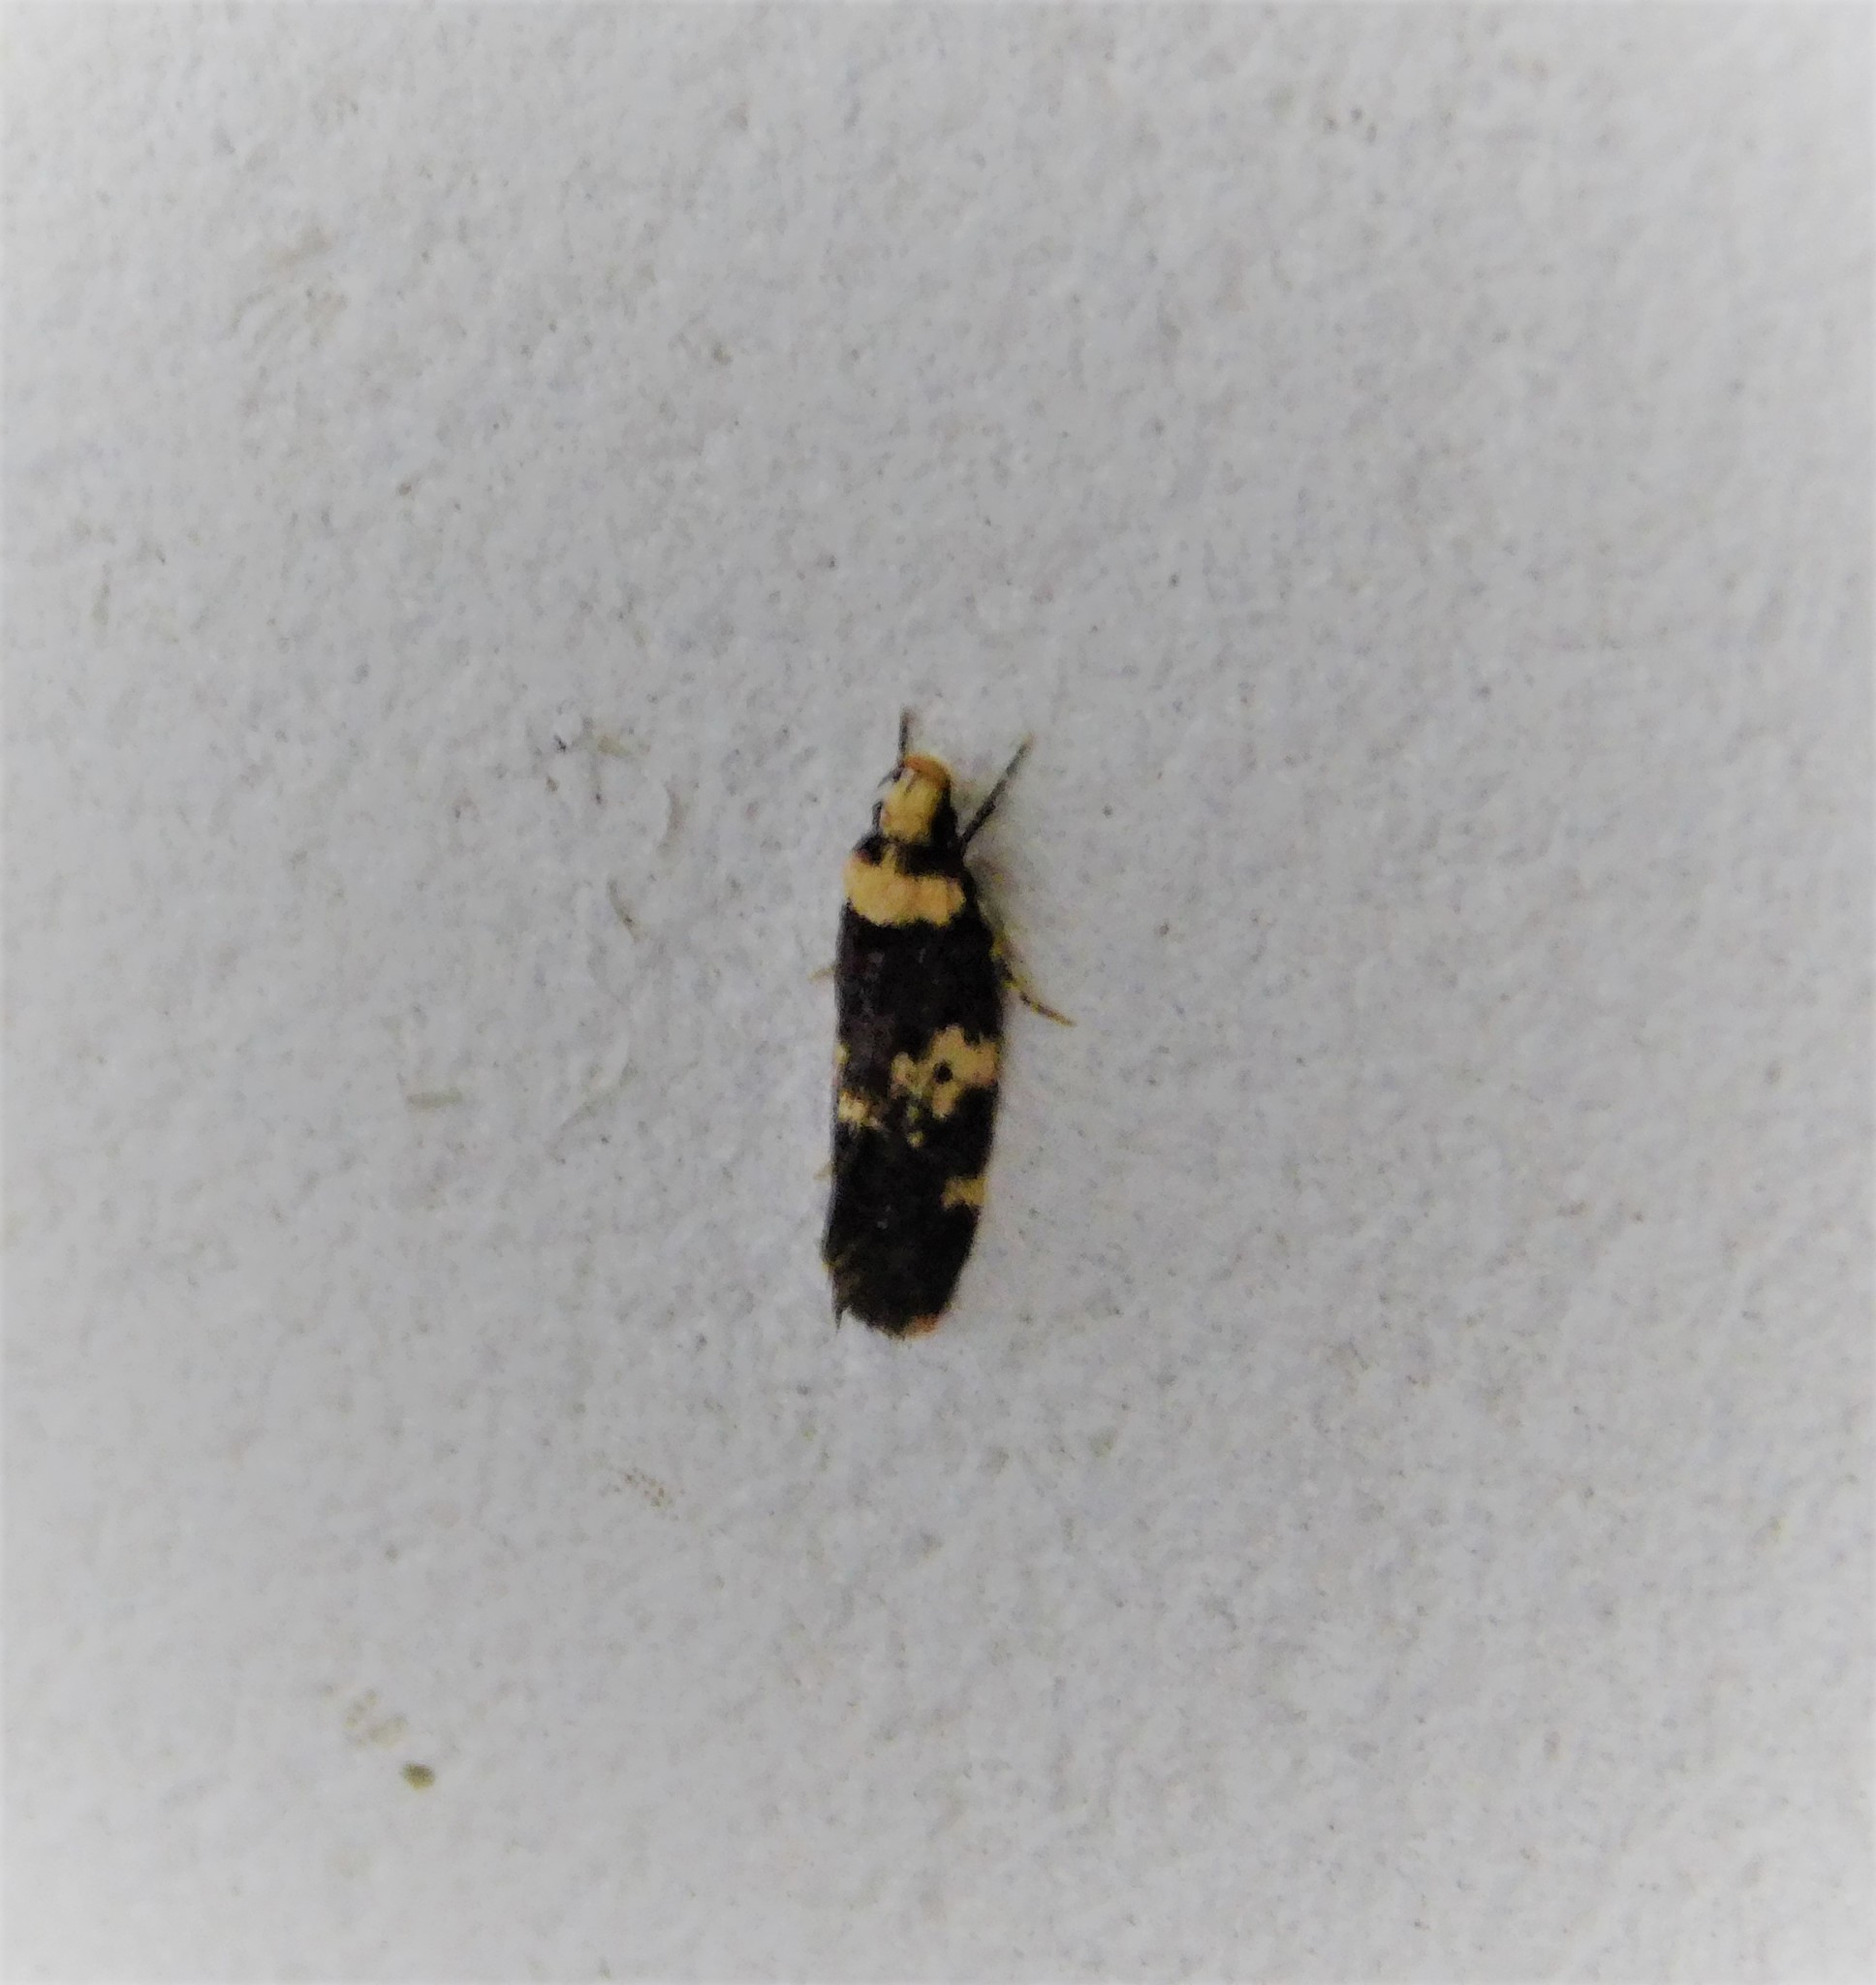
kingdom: Animalia
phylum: Arthropoda
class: Insecta
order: Lepidoptera
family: Oecophoridae
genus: Sphyrelata
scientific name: Sphyrelata amotella
